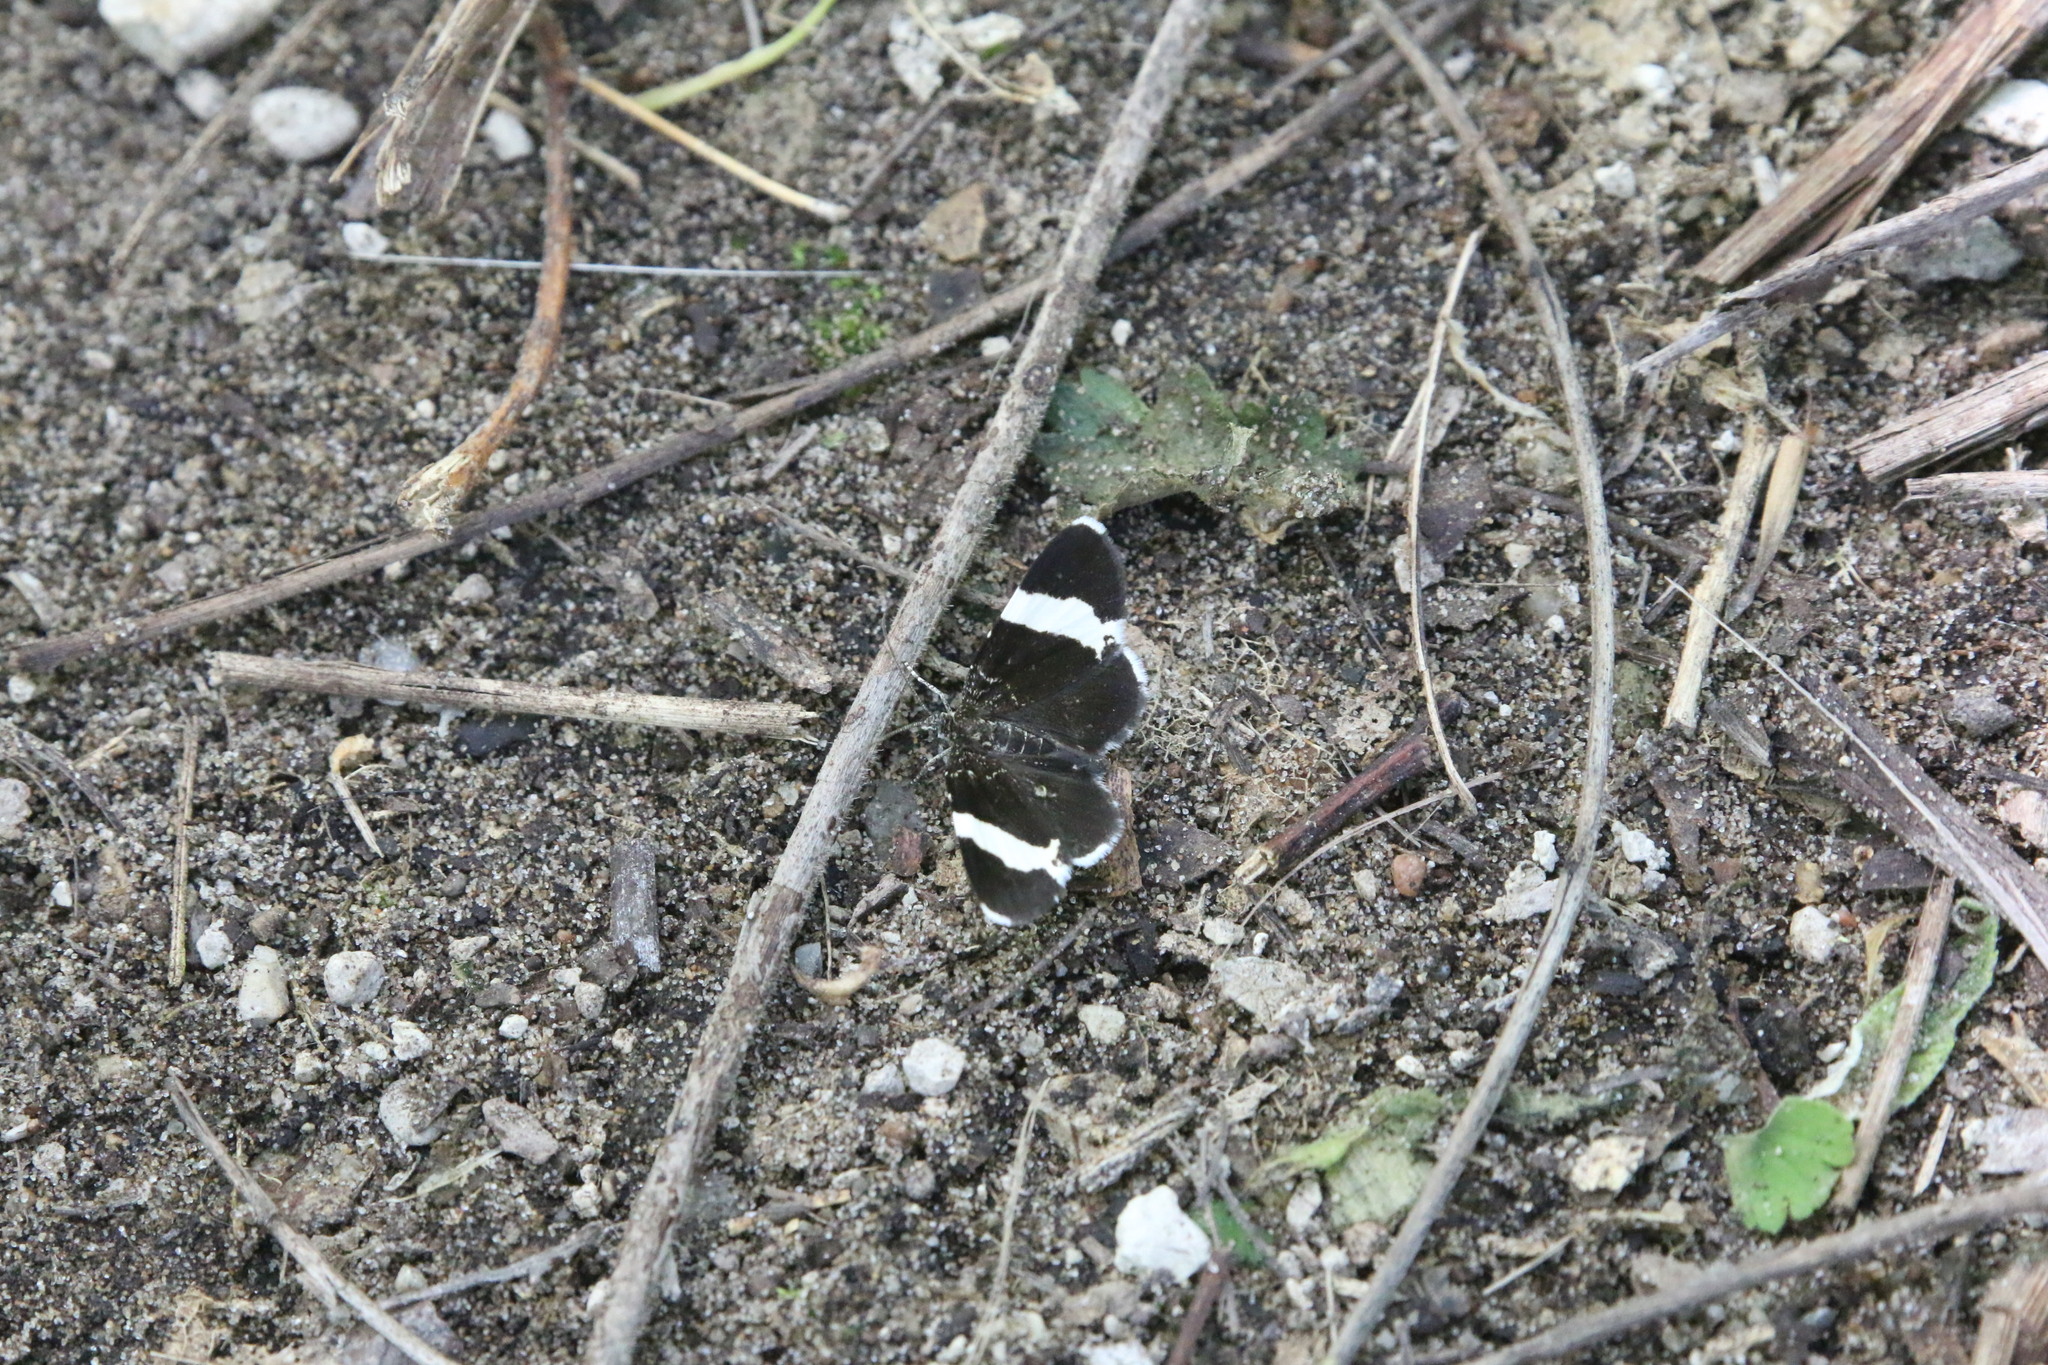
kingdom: Animalia
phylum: Arthropoda
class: Insecta
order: Lepidoptera
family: Geometridae
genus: Trichodezia
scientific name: Trichodezia albovittata
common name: White striped black
